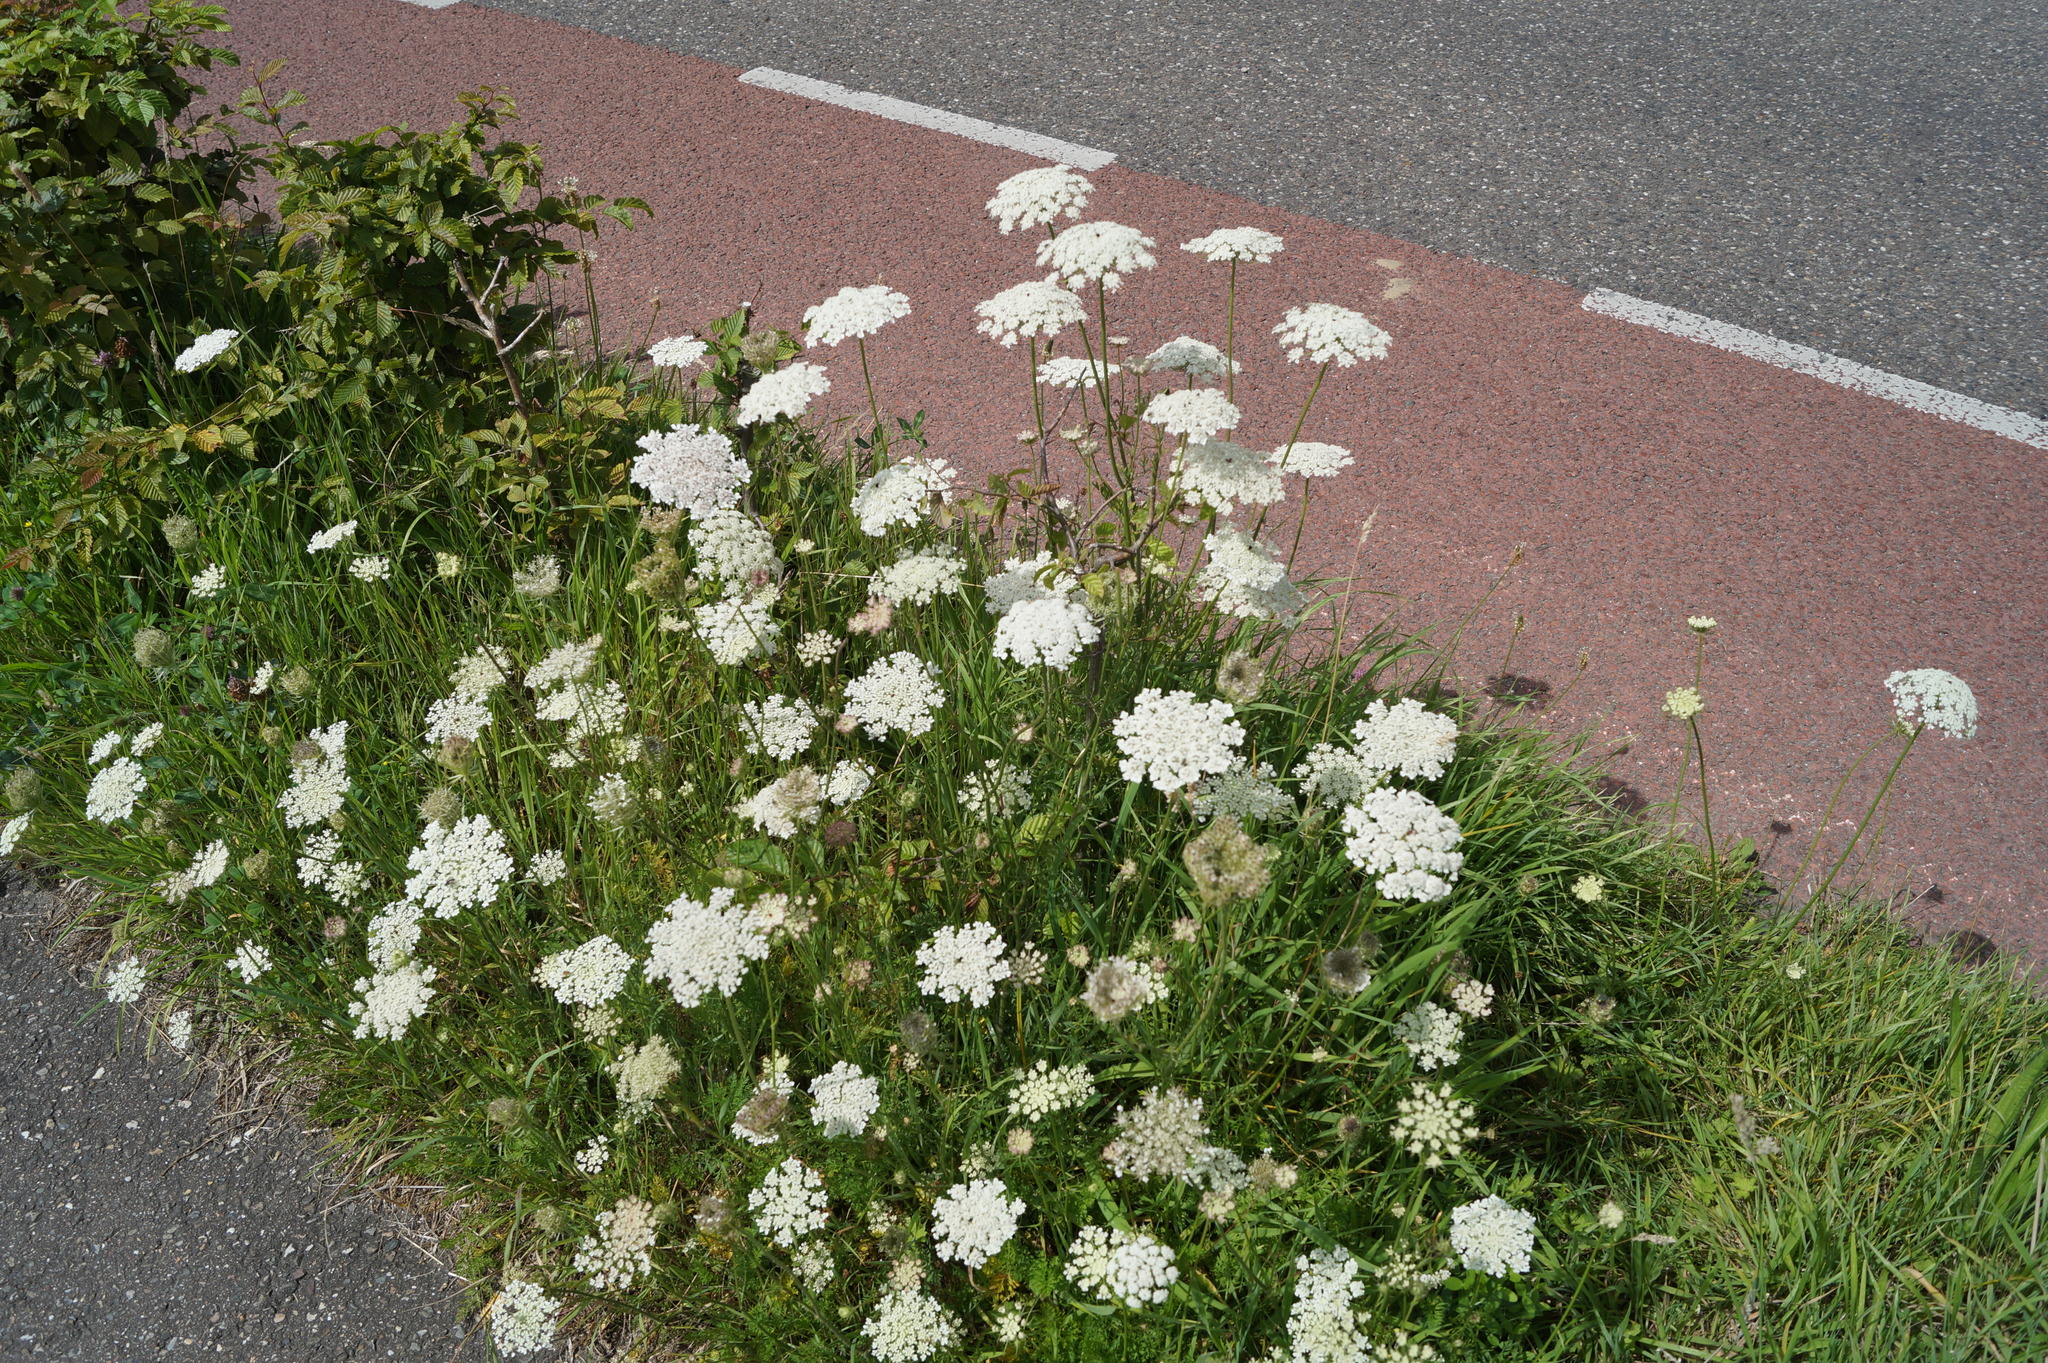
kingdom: Plantae
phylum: Tracheophyta
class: Magnoliopsida
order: Apiales
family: Apiaceae
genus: Daucus
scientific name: Daucus carota
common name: Wild carrot
